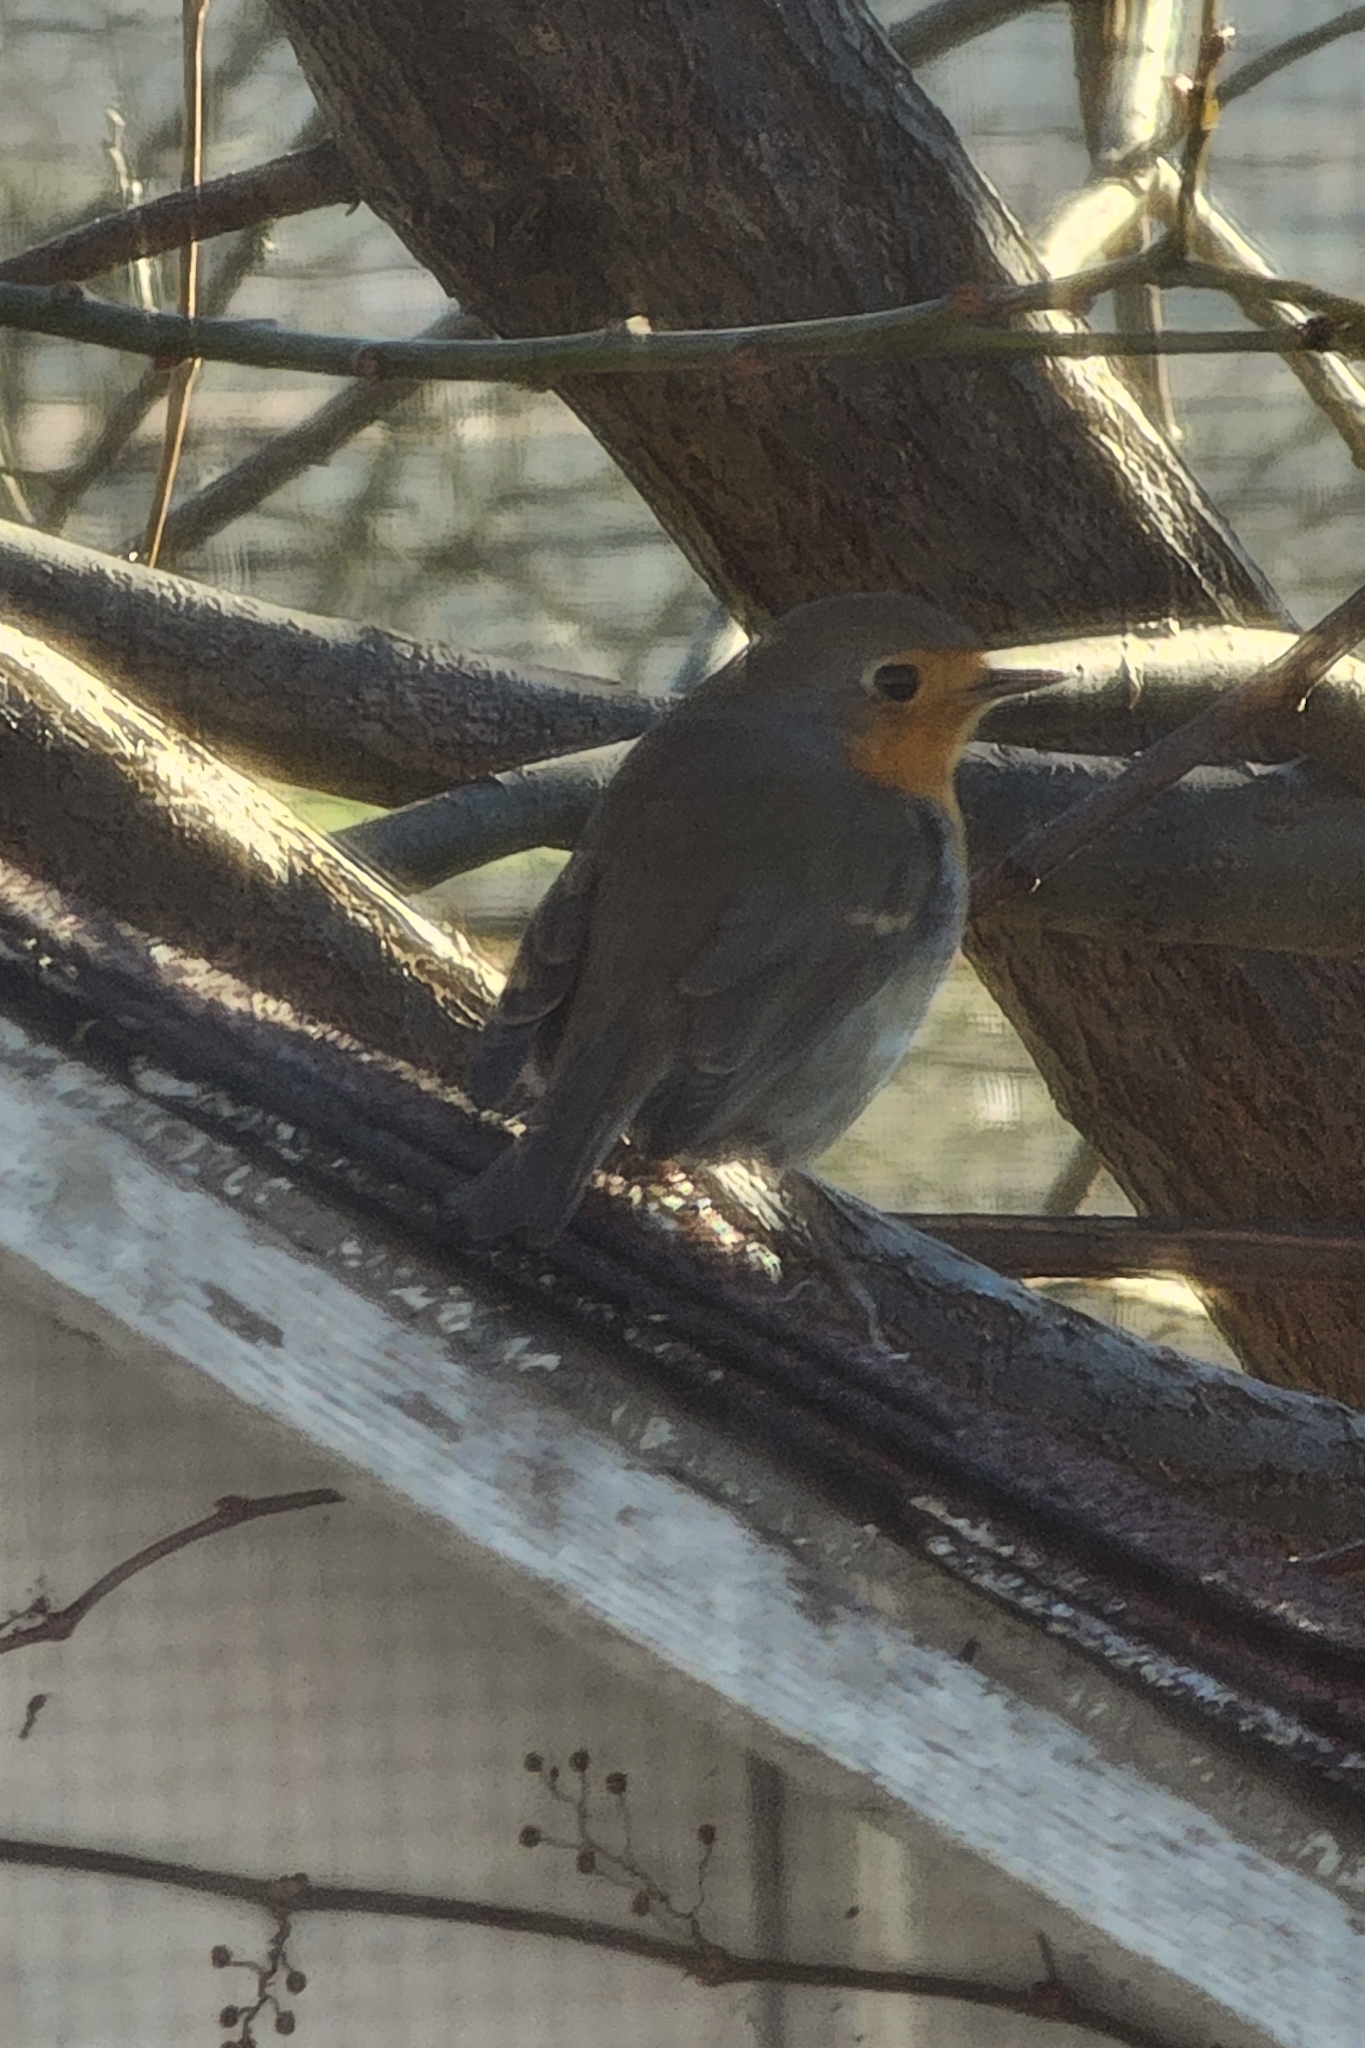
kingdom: Animalia
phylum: Chordata
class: Aves
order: Passeriformes
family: Muscicapidae
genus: Erithacus
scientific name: Erithacus rubecula
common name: European robin
